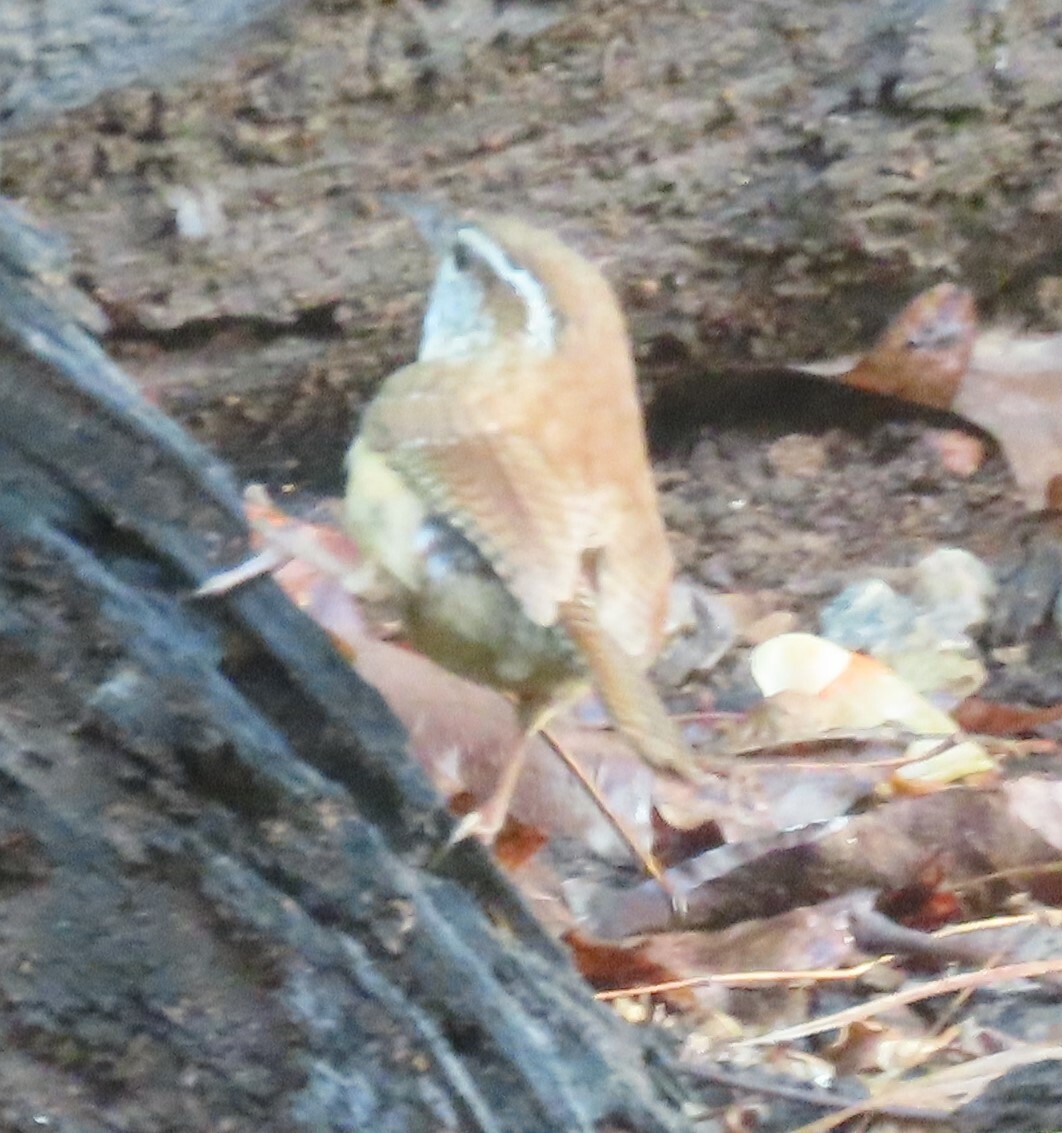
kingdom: Animalia
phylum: Chordata
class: Aves
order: Passeriformes
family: Troglodytidae
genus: Thryothorus
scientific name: Thryothorus ludovicianus
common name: Carolina wren
